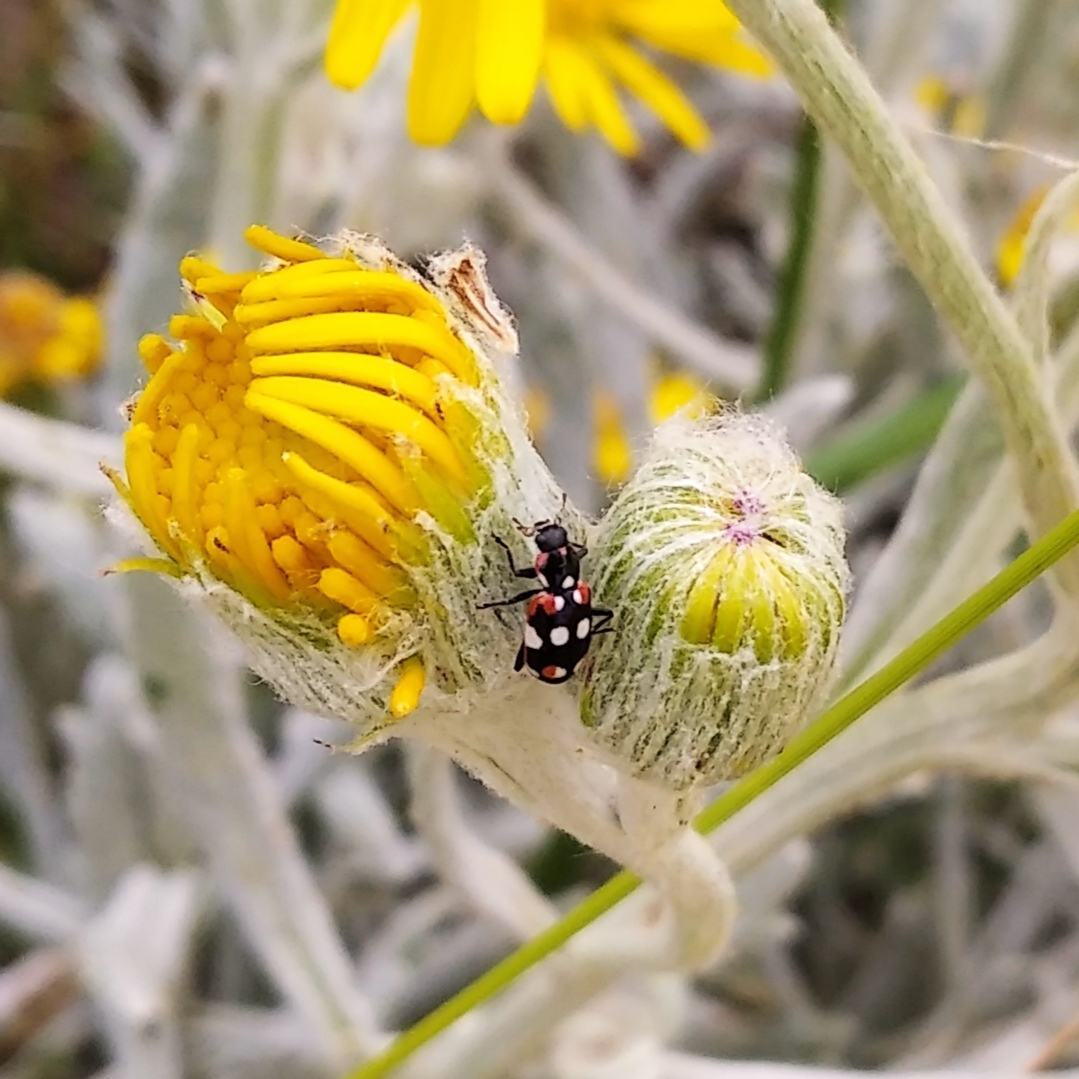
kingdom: Animalia
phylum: Arthropoda
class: Insecta
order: Coleoptera
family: Coccinellidae
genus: Eriopis
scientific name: Eriopis connexa
